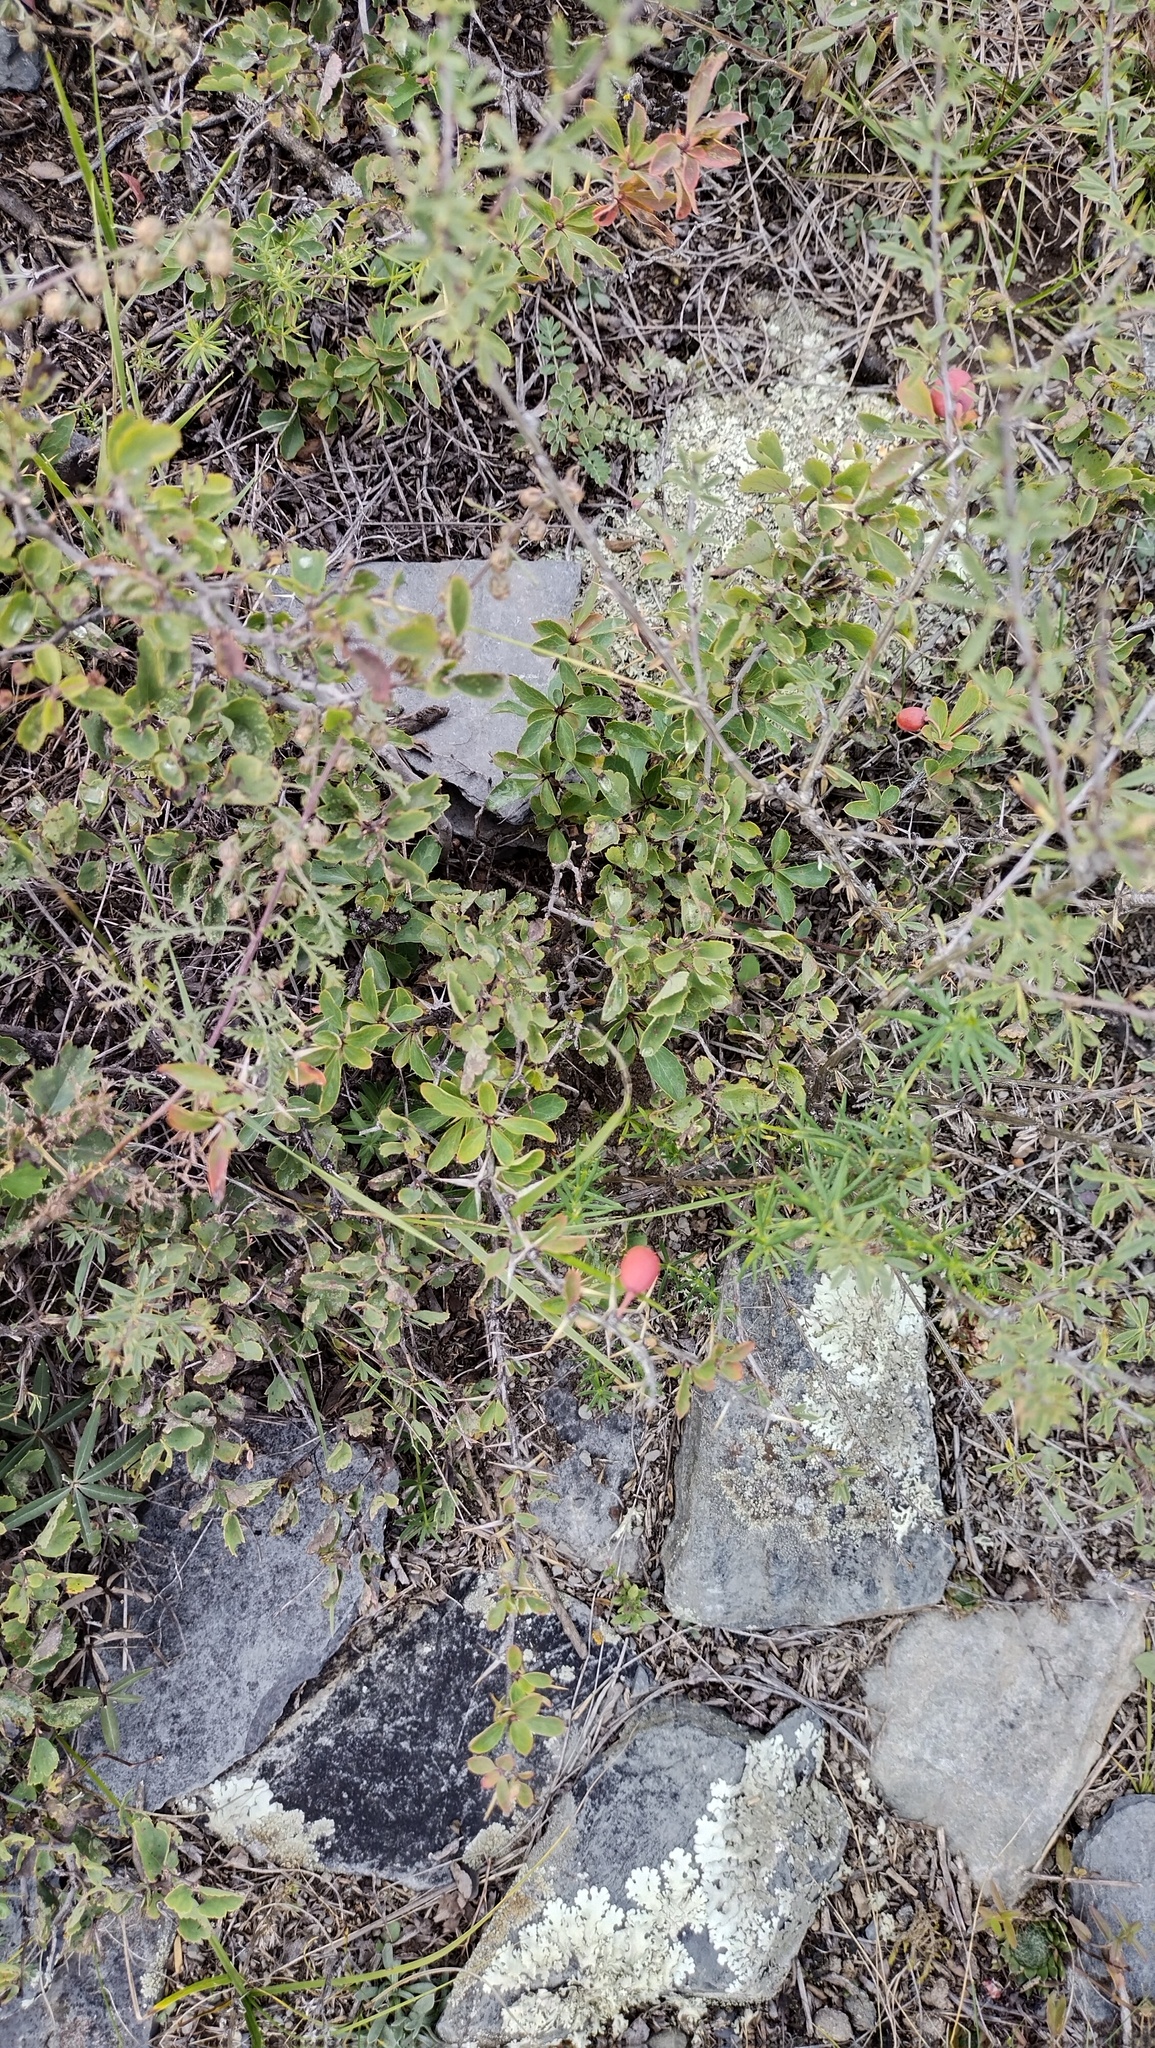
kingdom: Plantae
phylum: Tracheophyta
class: Magnoliopsida
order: Ranunculales
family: Berberidaceae
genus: Berberis
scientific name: Berberis sibirica
